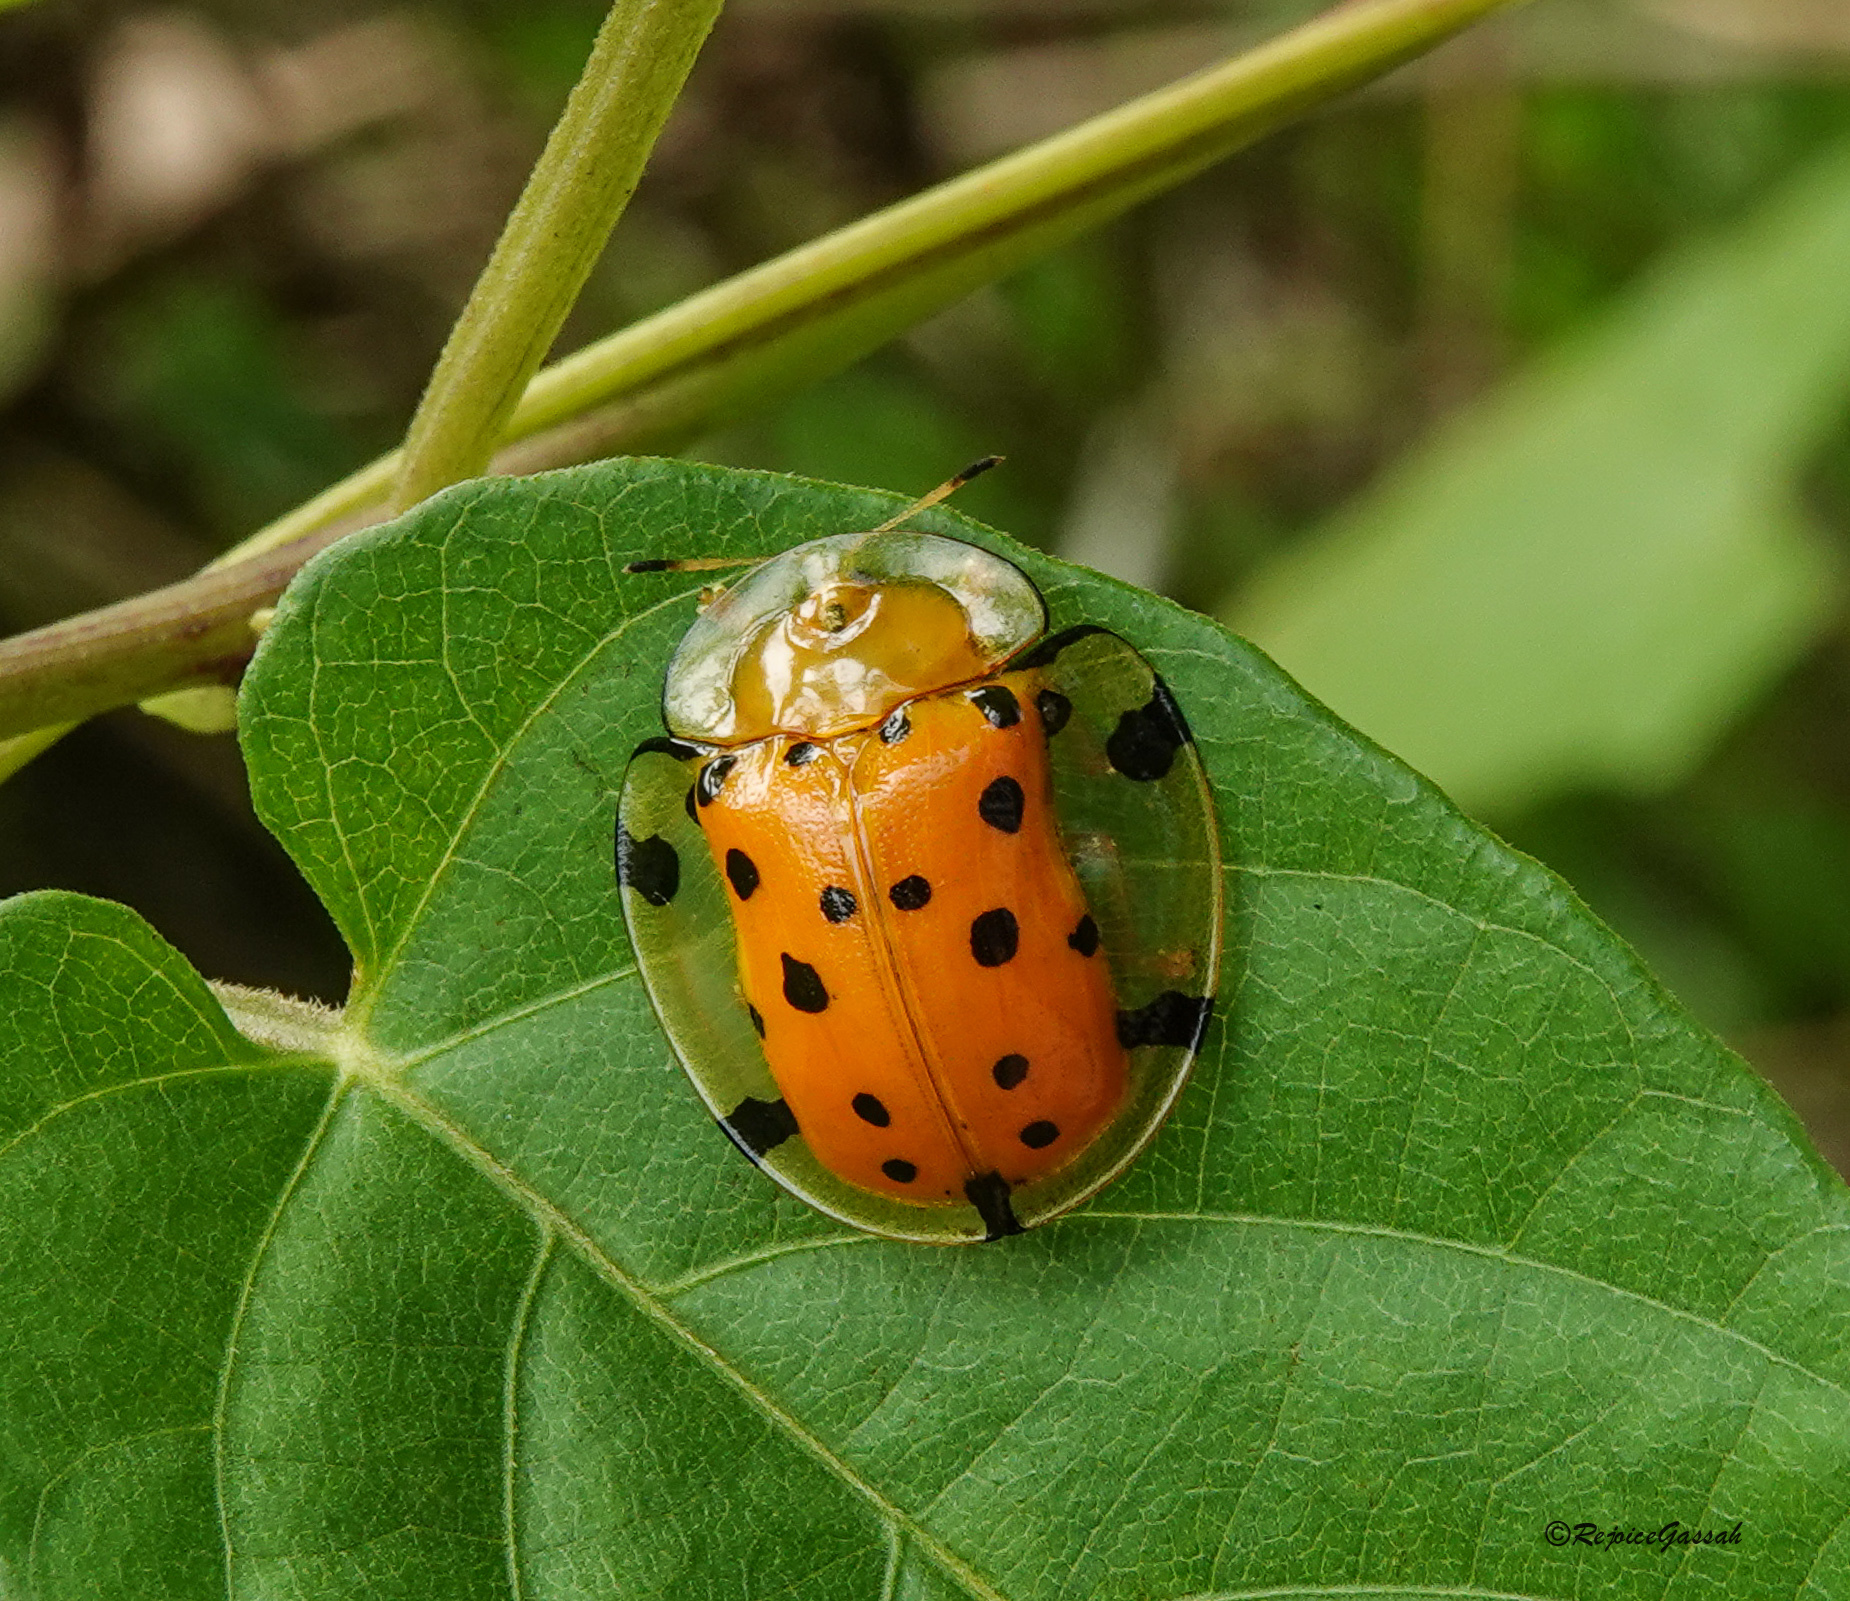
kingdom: Animalia
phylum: Arthropoda
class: Insecta
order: Coleoptera
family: Chrysomelidae
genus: Aspidimorpha
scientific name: Aspidimorpha miliaris
